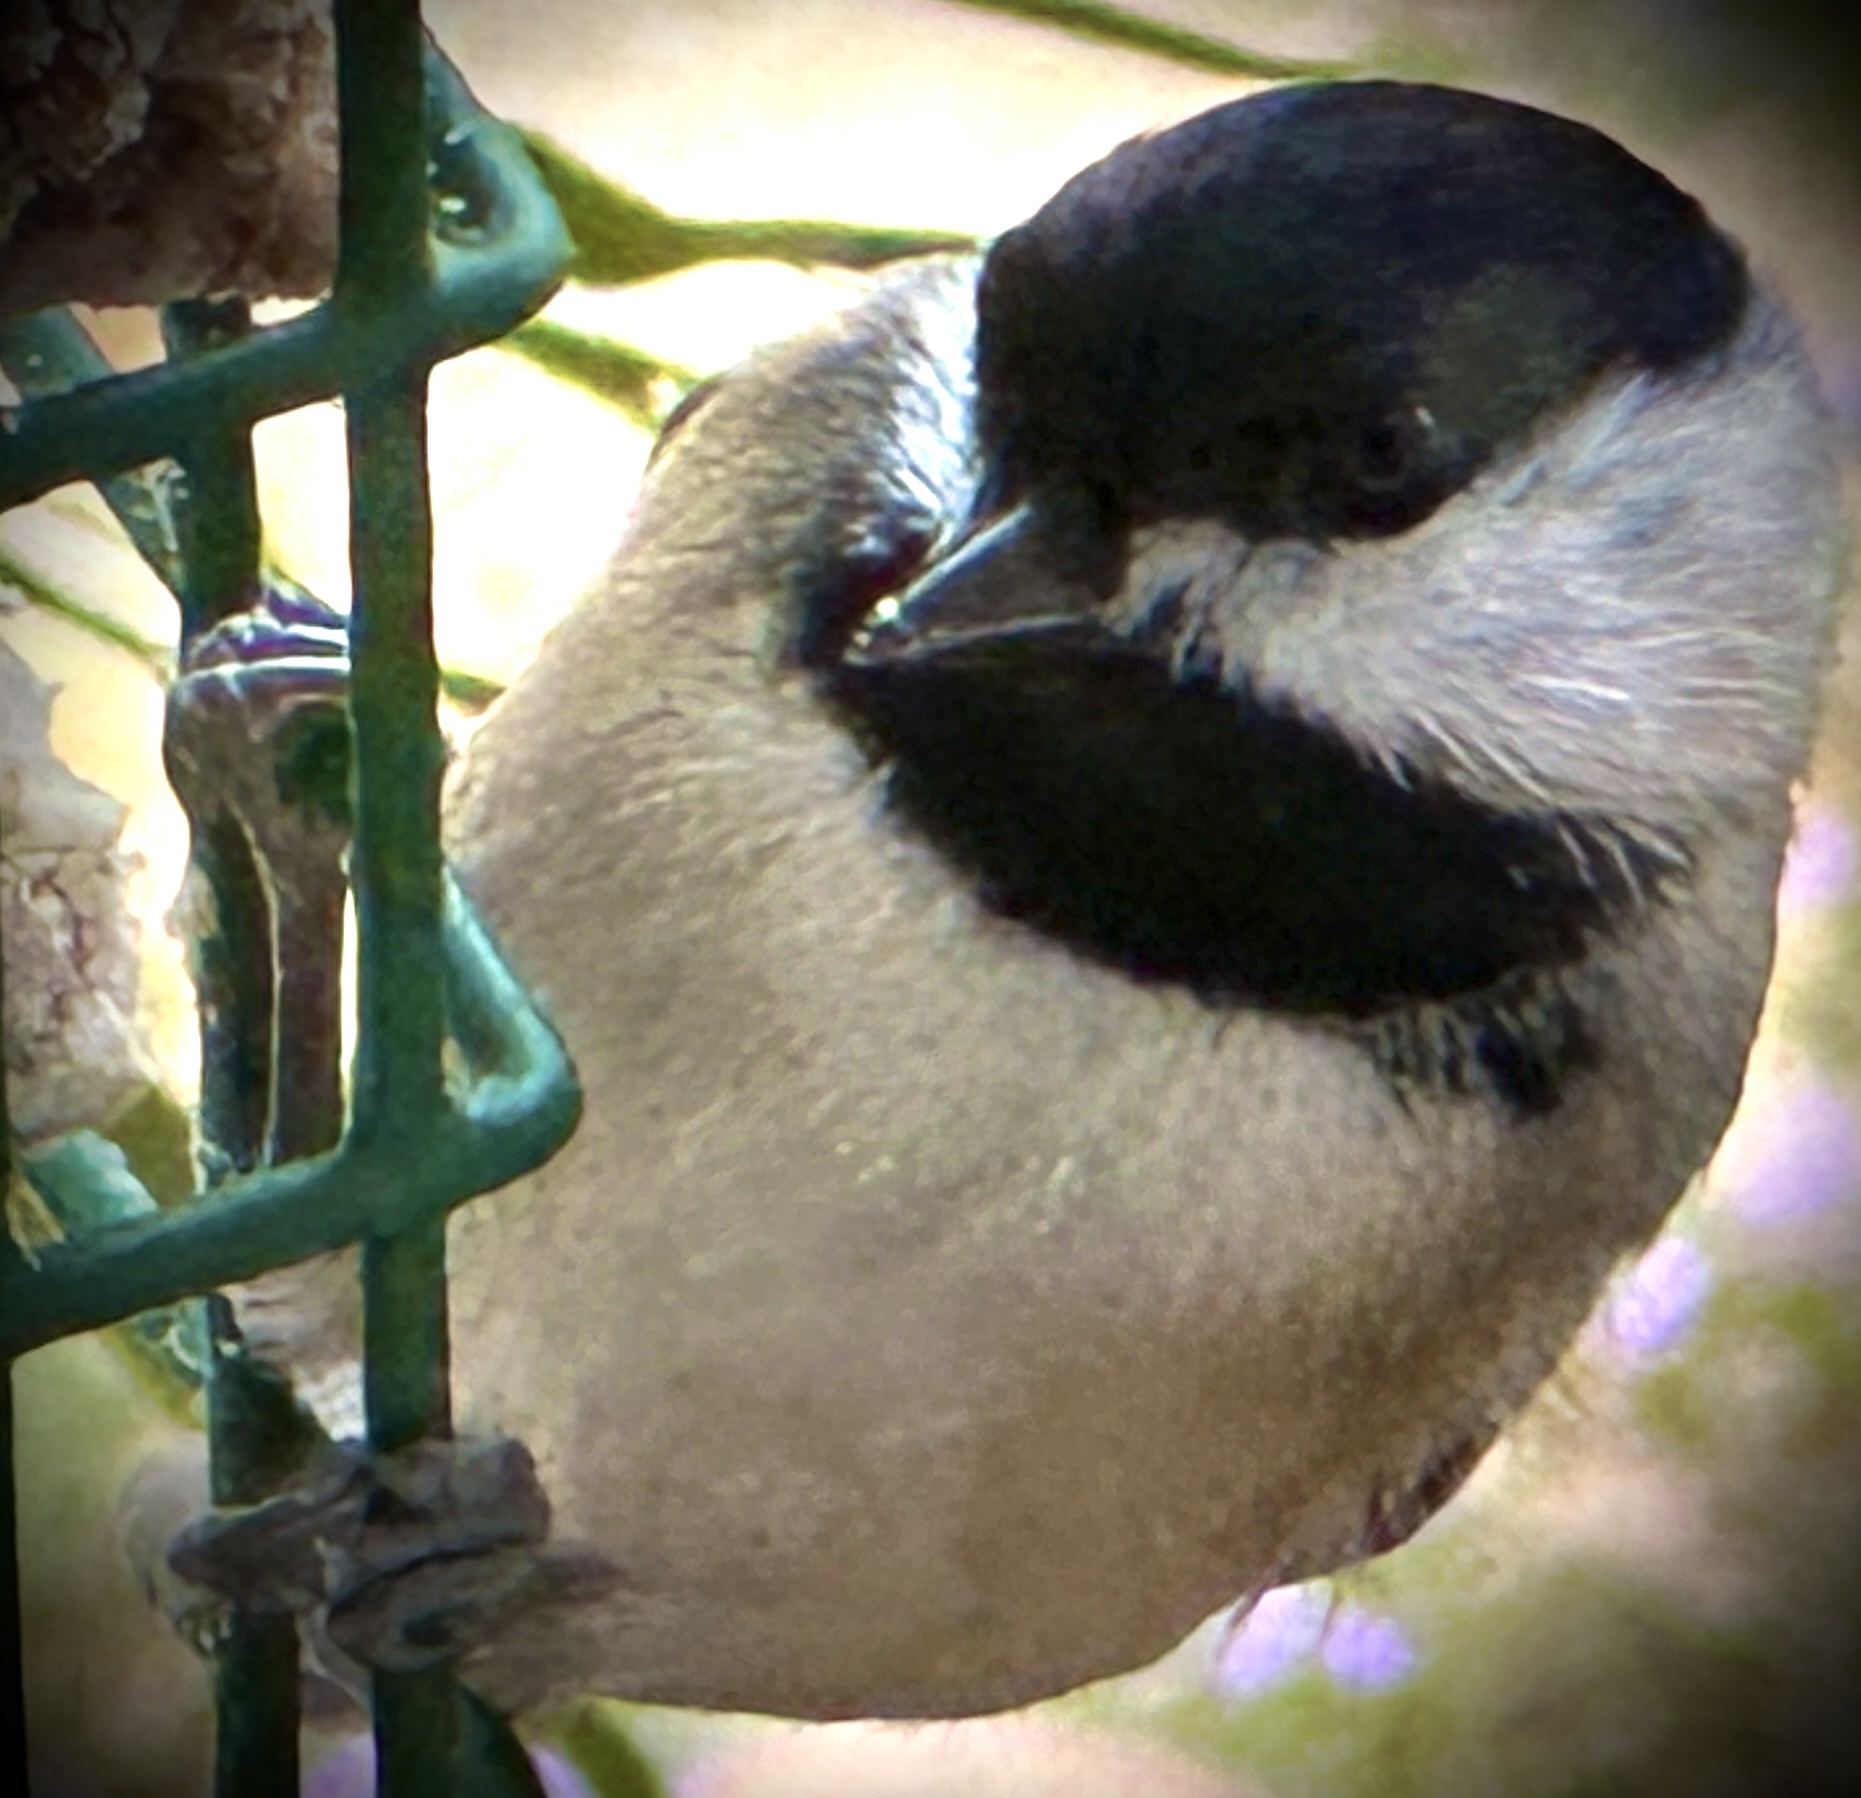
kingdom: Animalia
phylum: Chordata
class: Aves
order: Passeriformes
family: Paridae
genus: Poecile
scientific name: Poecile carolinensis
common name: Carolina chickadee
